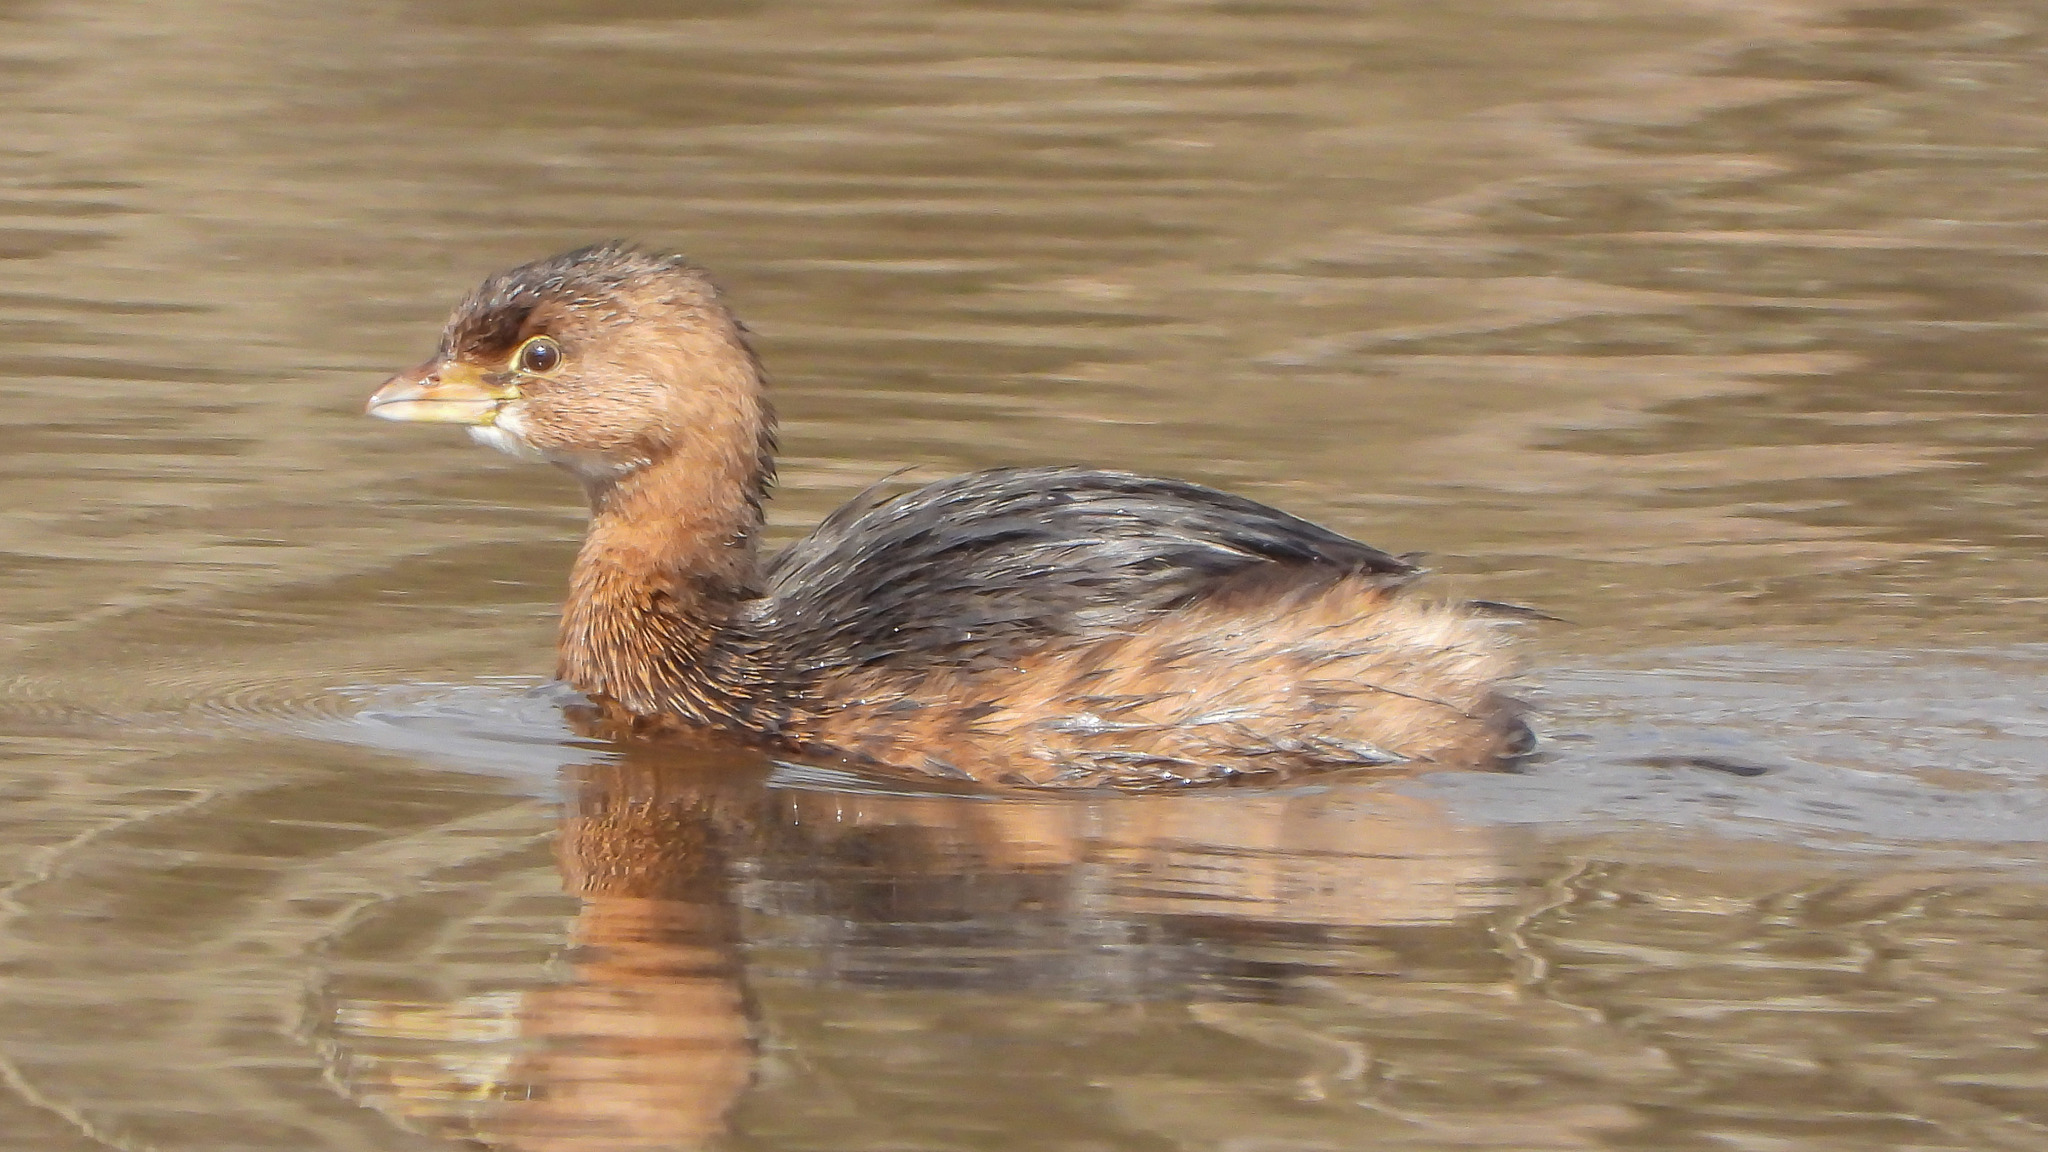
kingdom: Animalia
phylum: Chordata
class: Aves
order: Podicipediformes
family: Podicipedidae
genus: Podilymbus
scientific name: Podilymbus podiceps
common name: Pied-billed grebe
